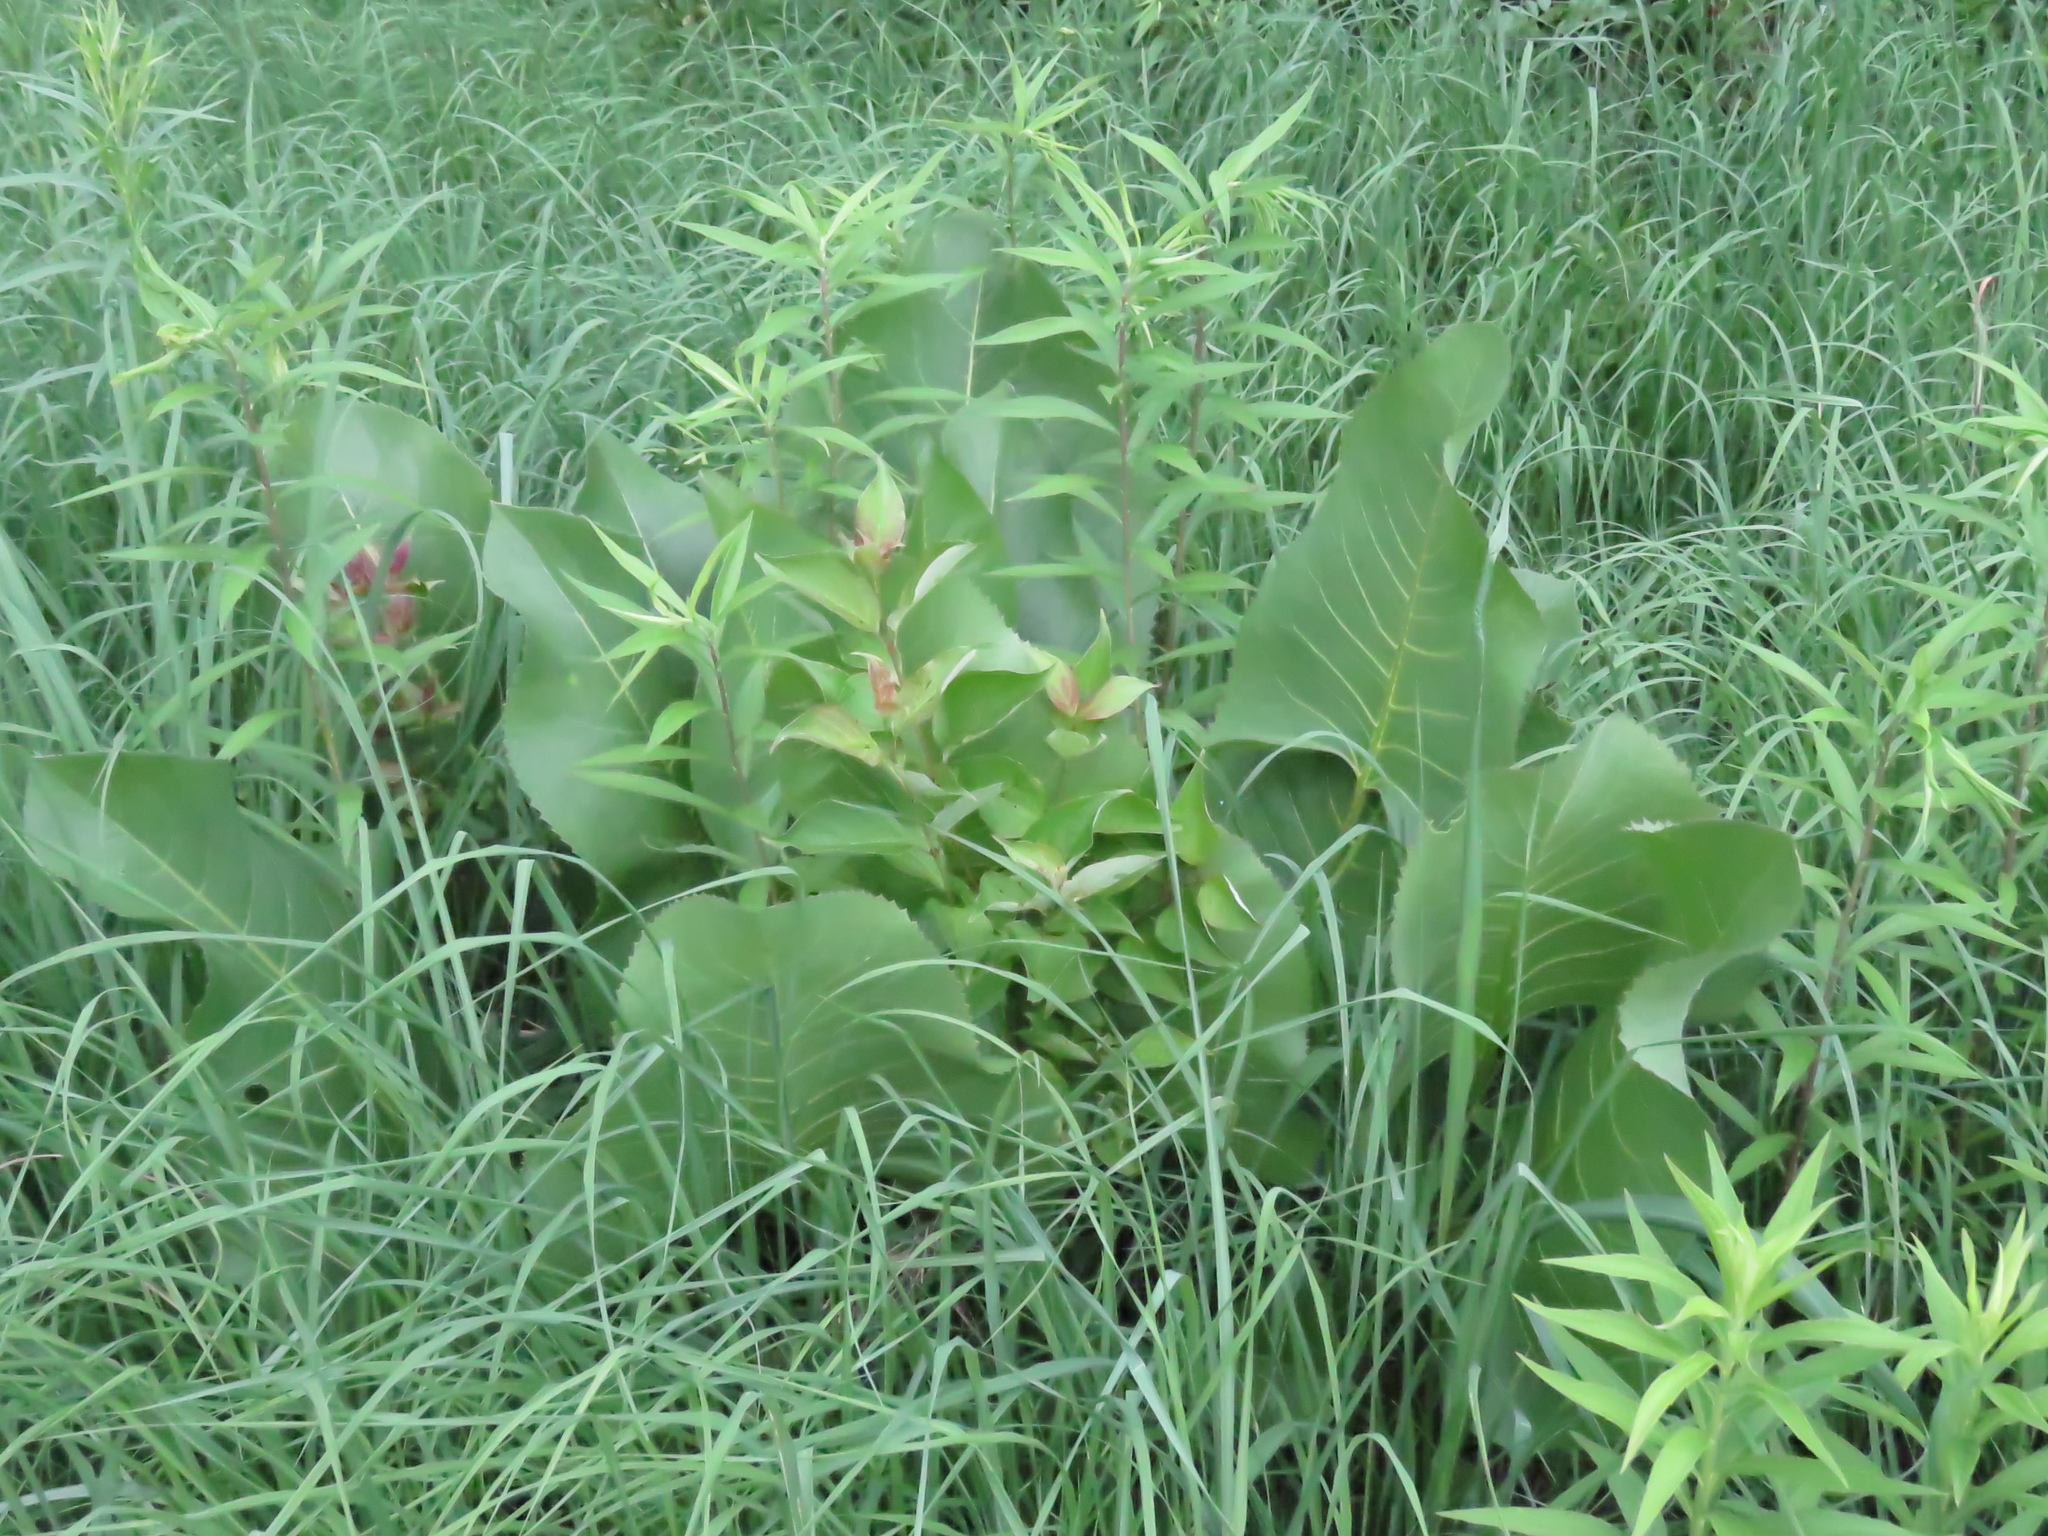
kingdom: Plantae
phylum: Tracheophyta
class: Magnoliopsida
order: Asterales
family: Asteraceae
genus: Silphium
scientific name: Silphium terebinthinaceum
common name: Basal-leaf rosinweed
